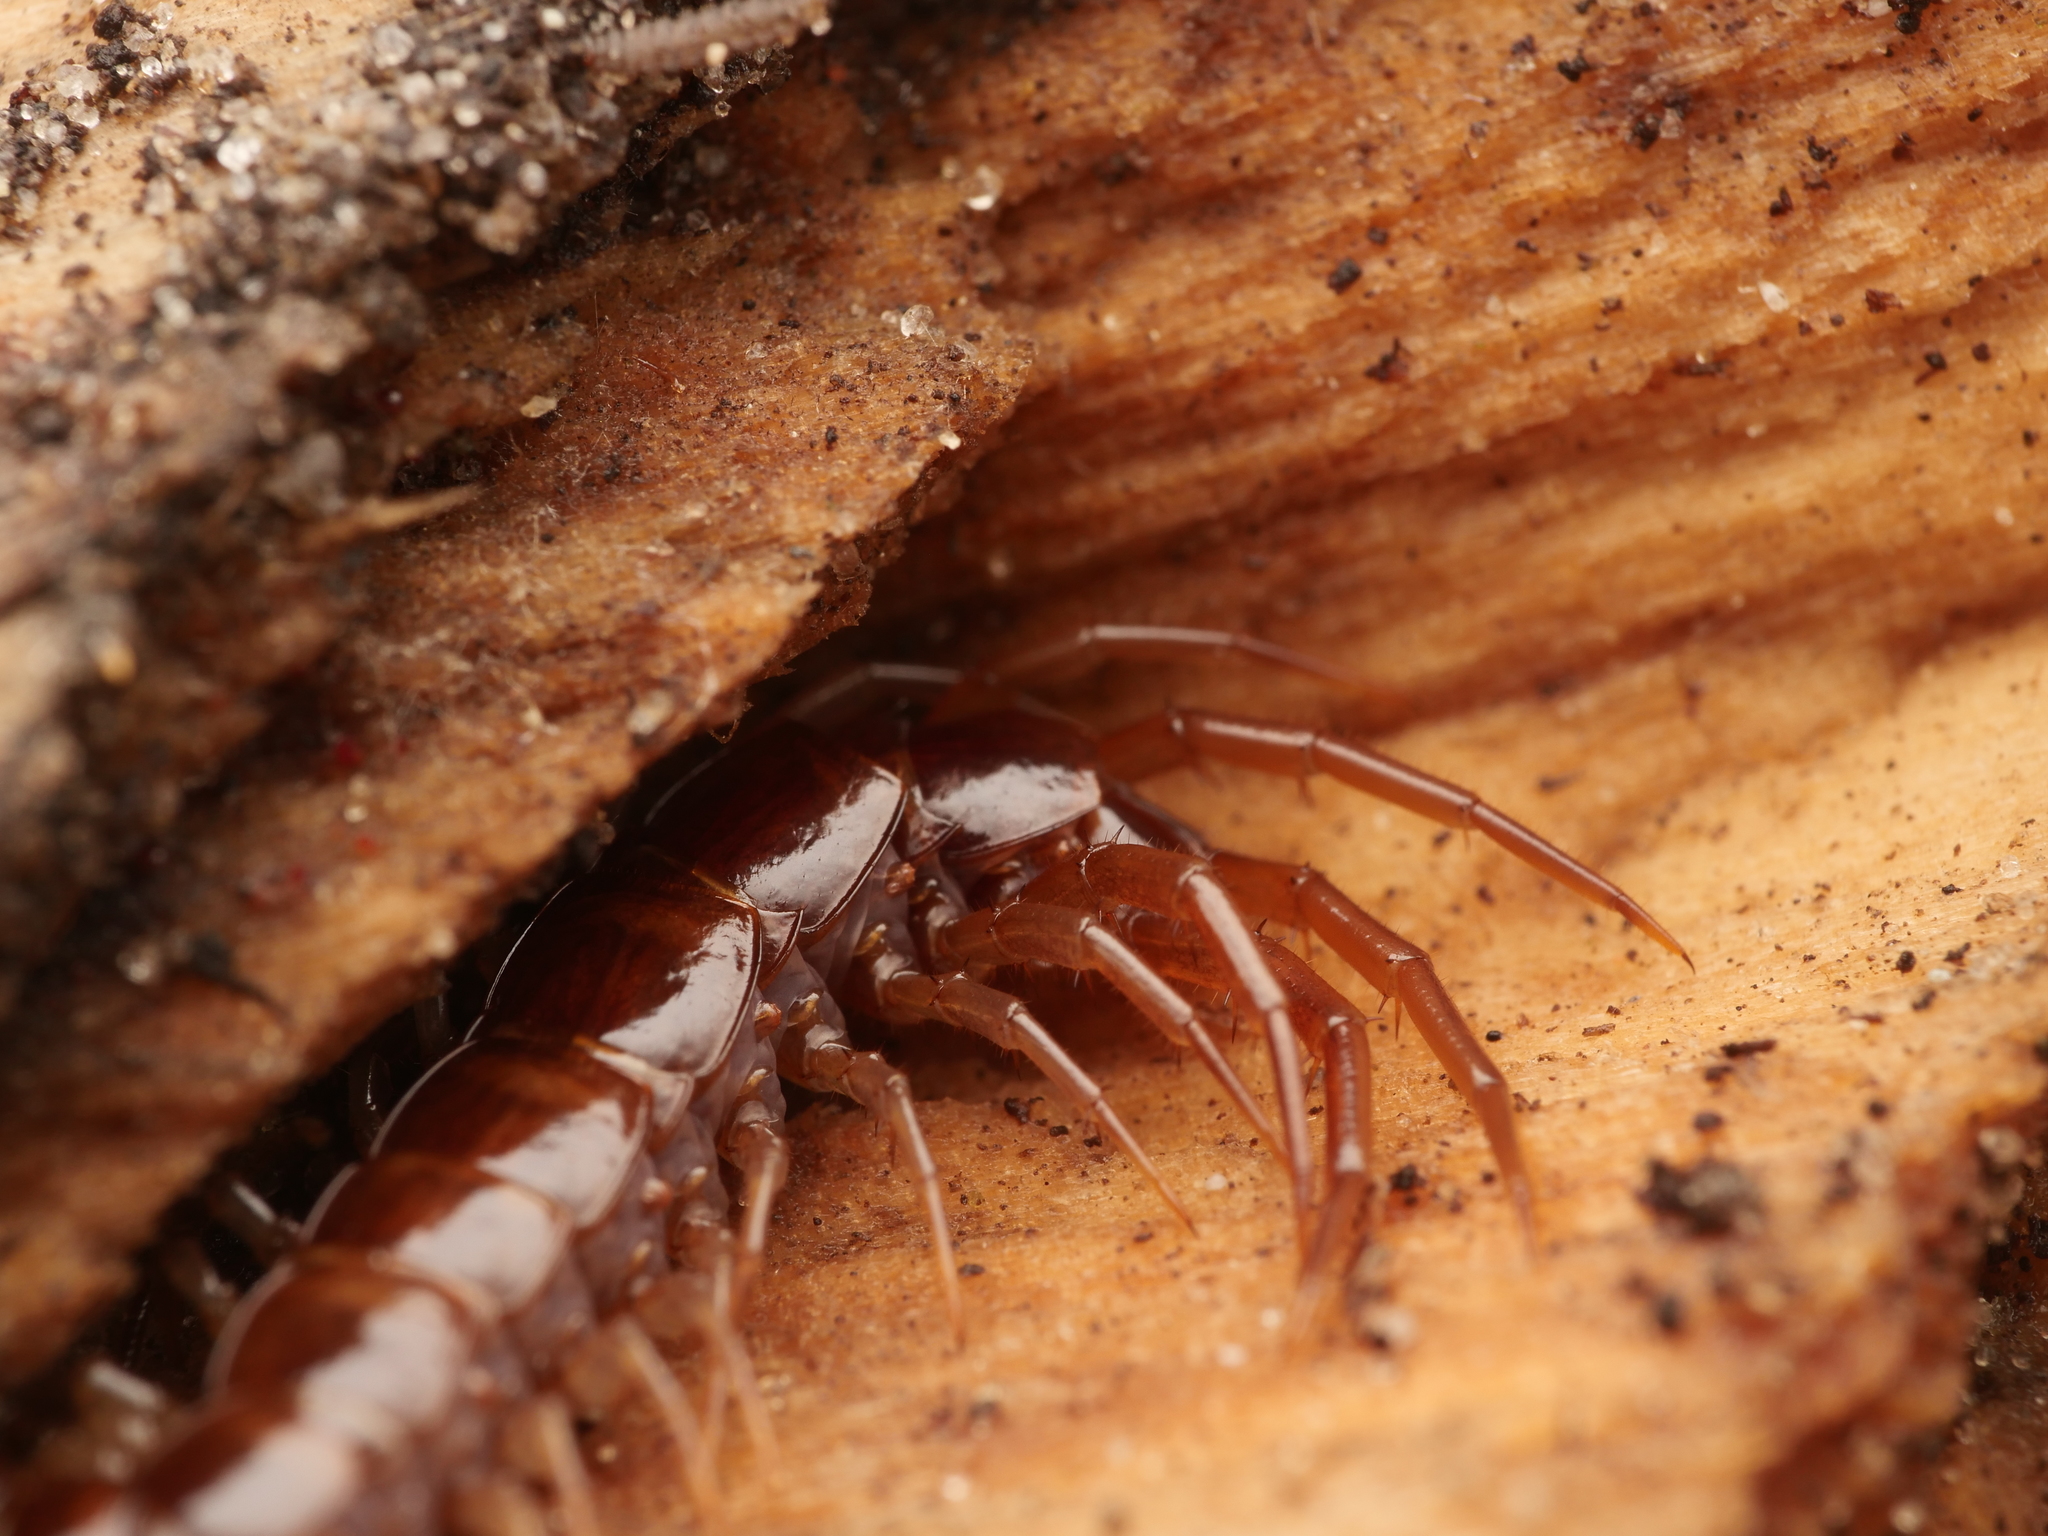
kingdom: Animalia
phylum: Arthropoda
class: Chilopoda
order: Lithobiomorpha
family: Lithobiidae
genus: Lithobius
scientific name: Lithobius forficatus
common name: Centipede
